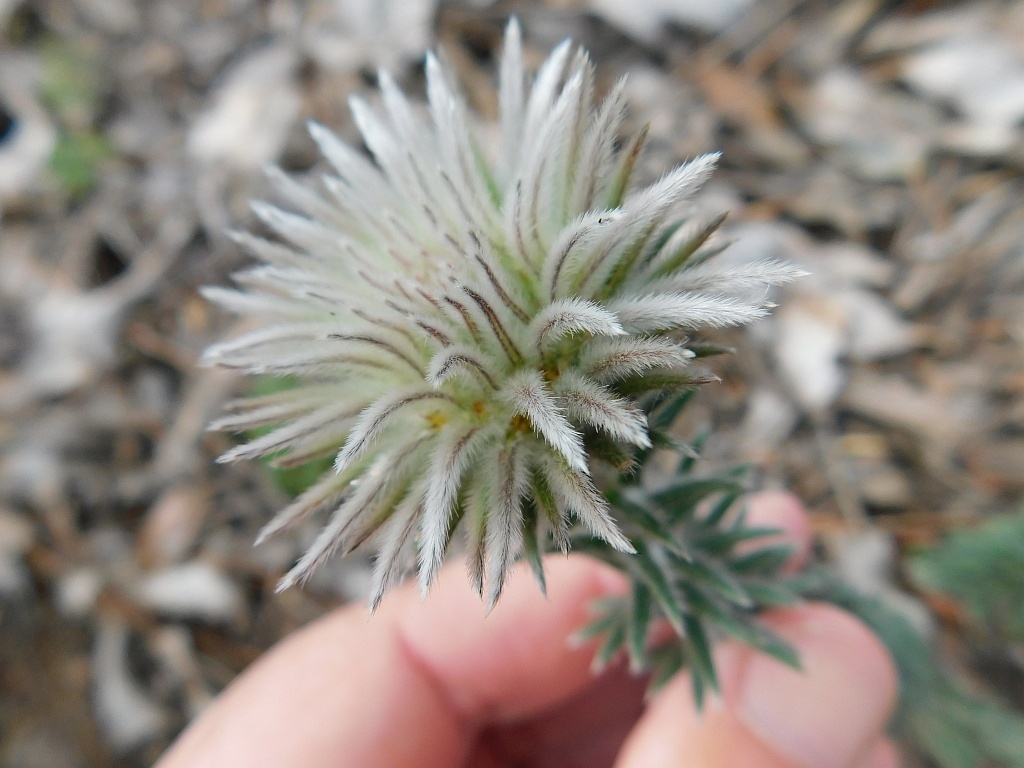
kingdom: Plantae
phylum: Tracheophyta
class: Magnoliopsida
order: Rosales
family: Rhamnaceae
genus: Phylica
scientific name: Phylica pubescens
